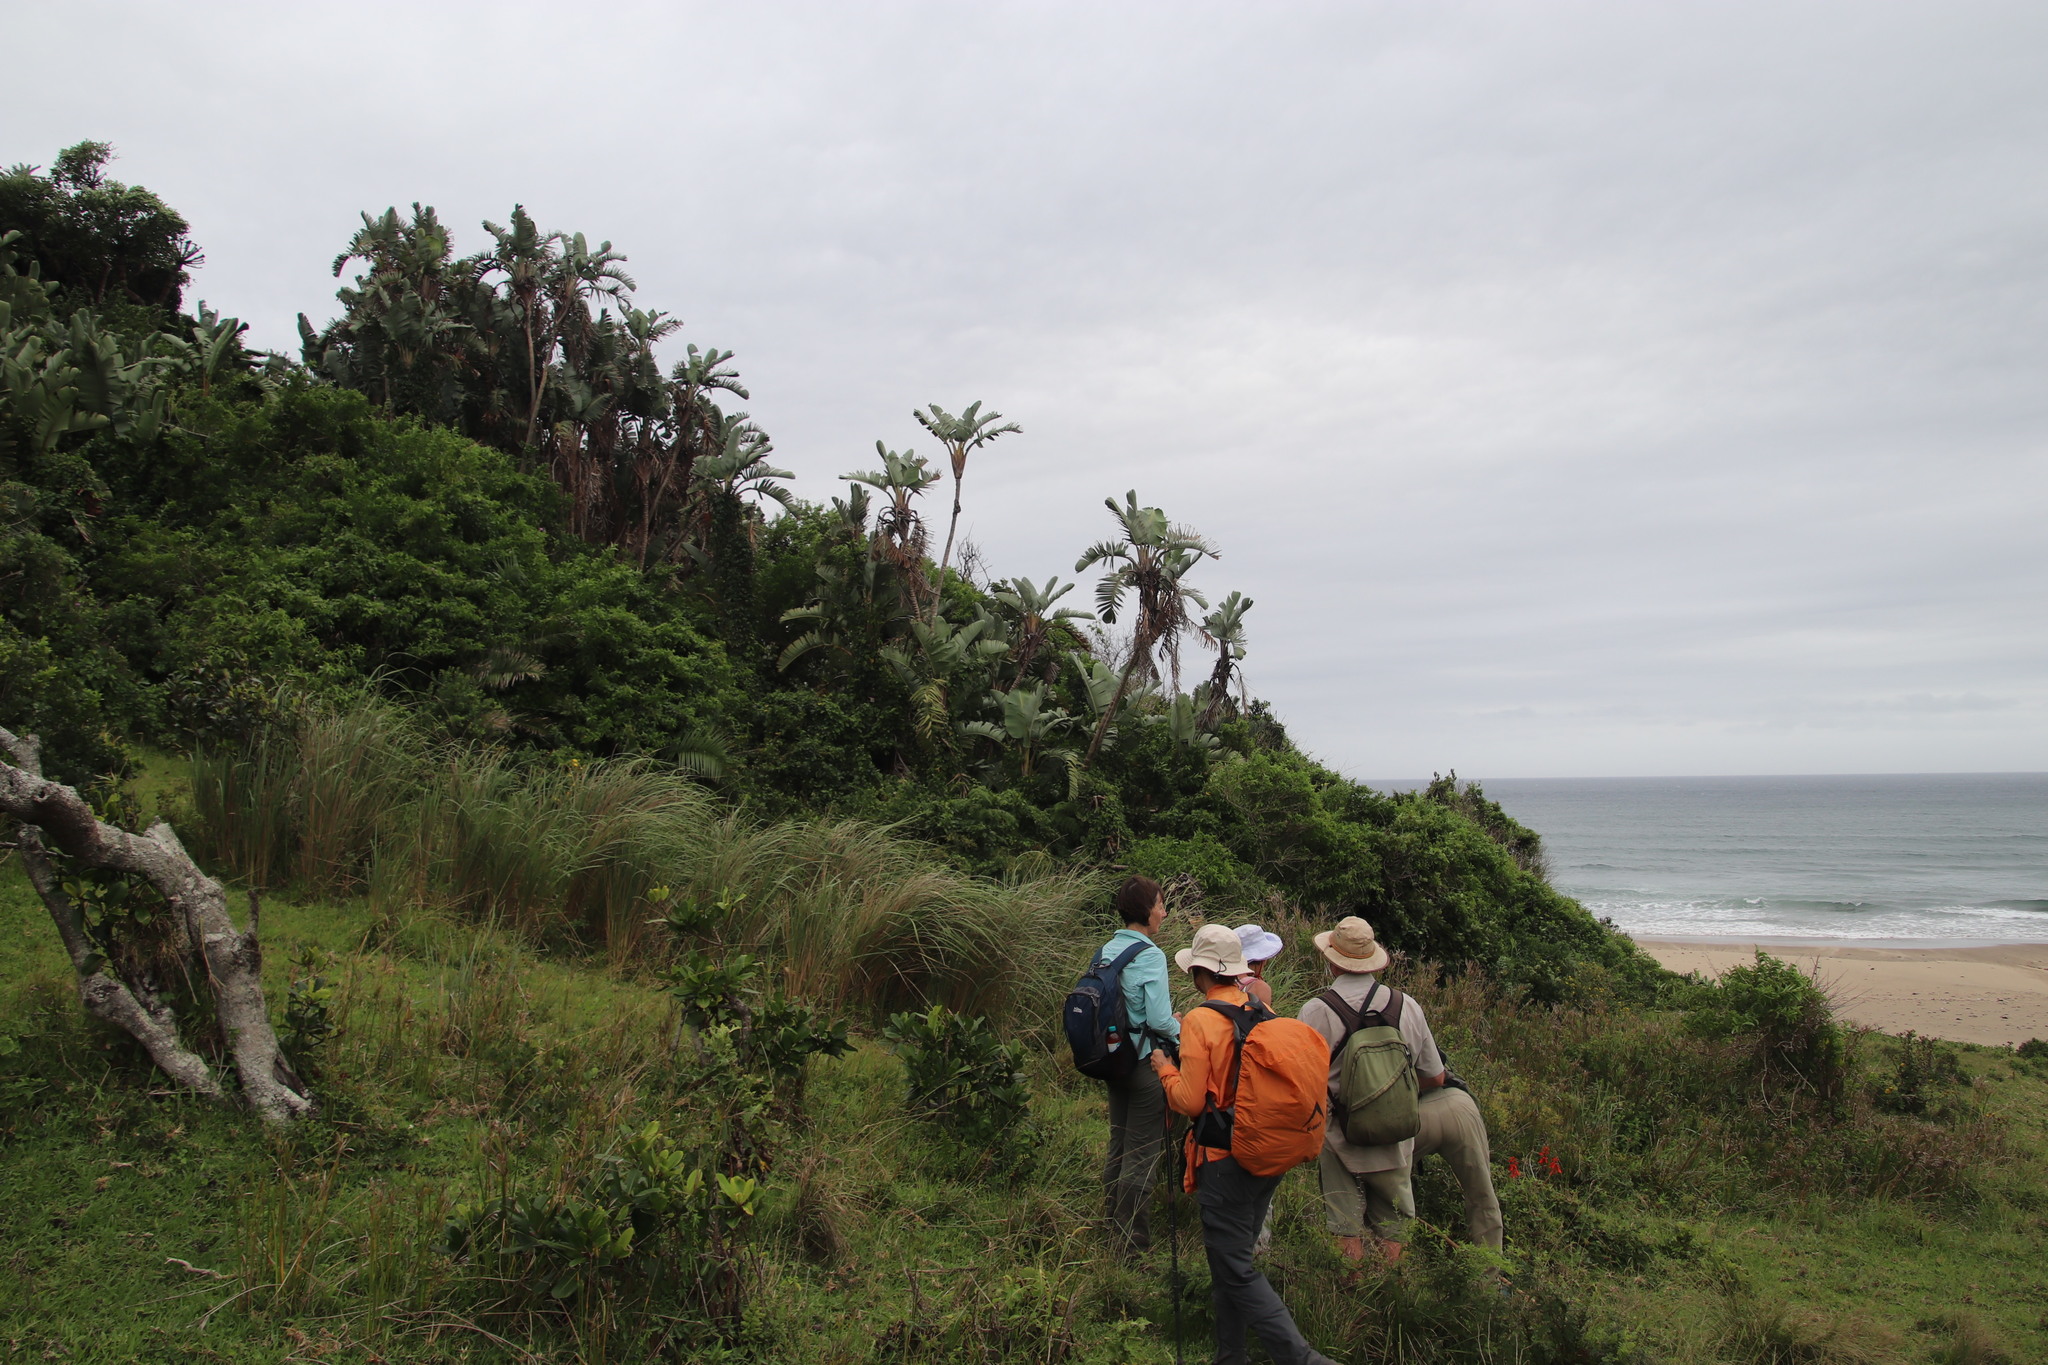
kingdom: Plantae
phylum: Tracheophyta
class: Liliopsida
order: Zingiberales
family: Strelitziaceae
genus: Strelitzia
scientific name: Strelitzia nicolai
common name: Bird-of-paradise tree
